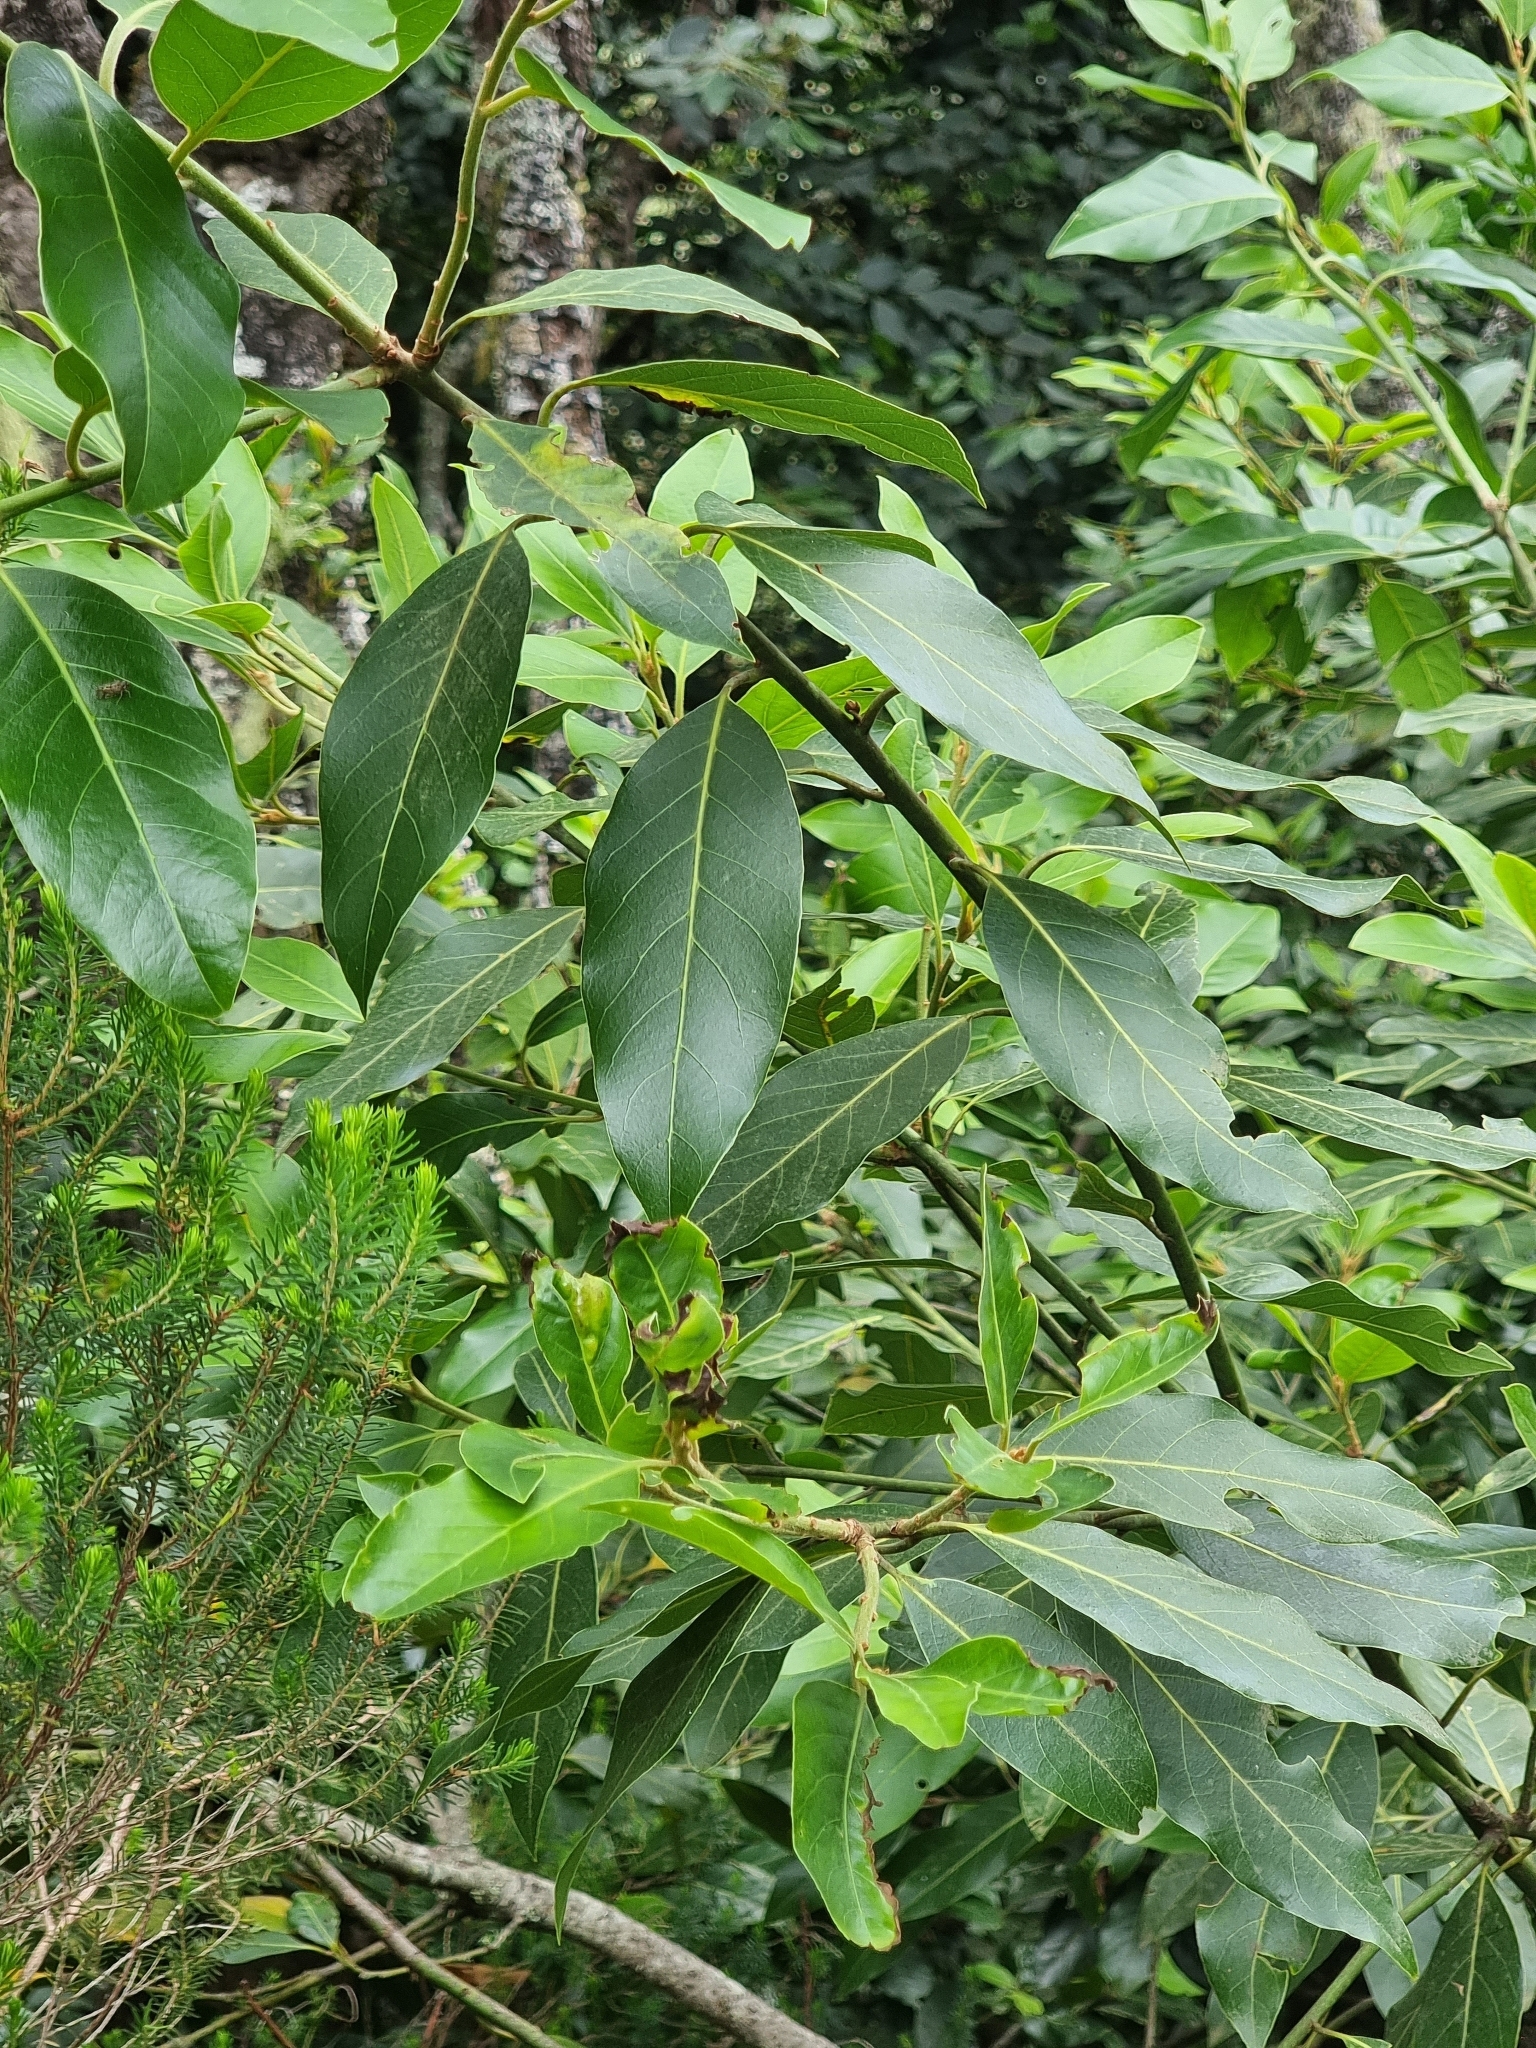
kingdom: Plantae
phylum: Tracheophyta
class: Magnoliopsida
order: Laurales
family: Lauraceae
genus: Laurus
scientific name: Laurus novocanariensis
